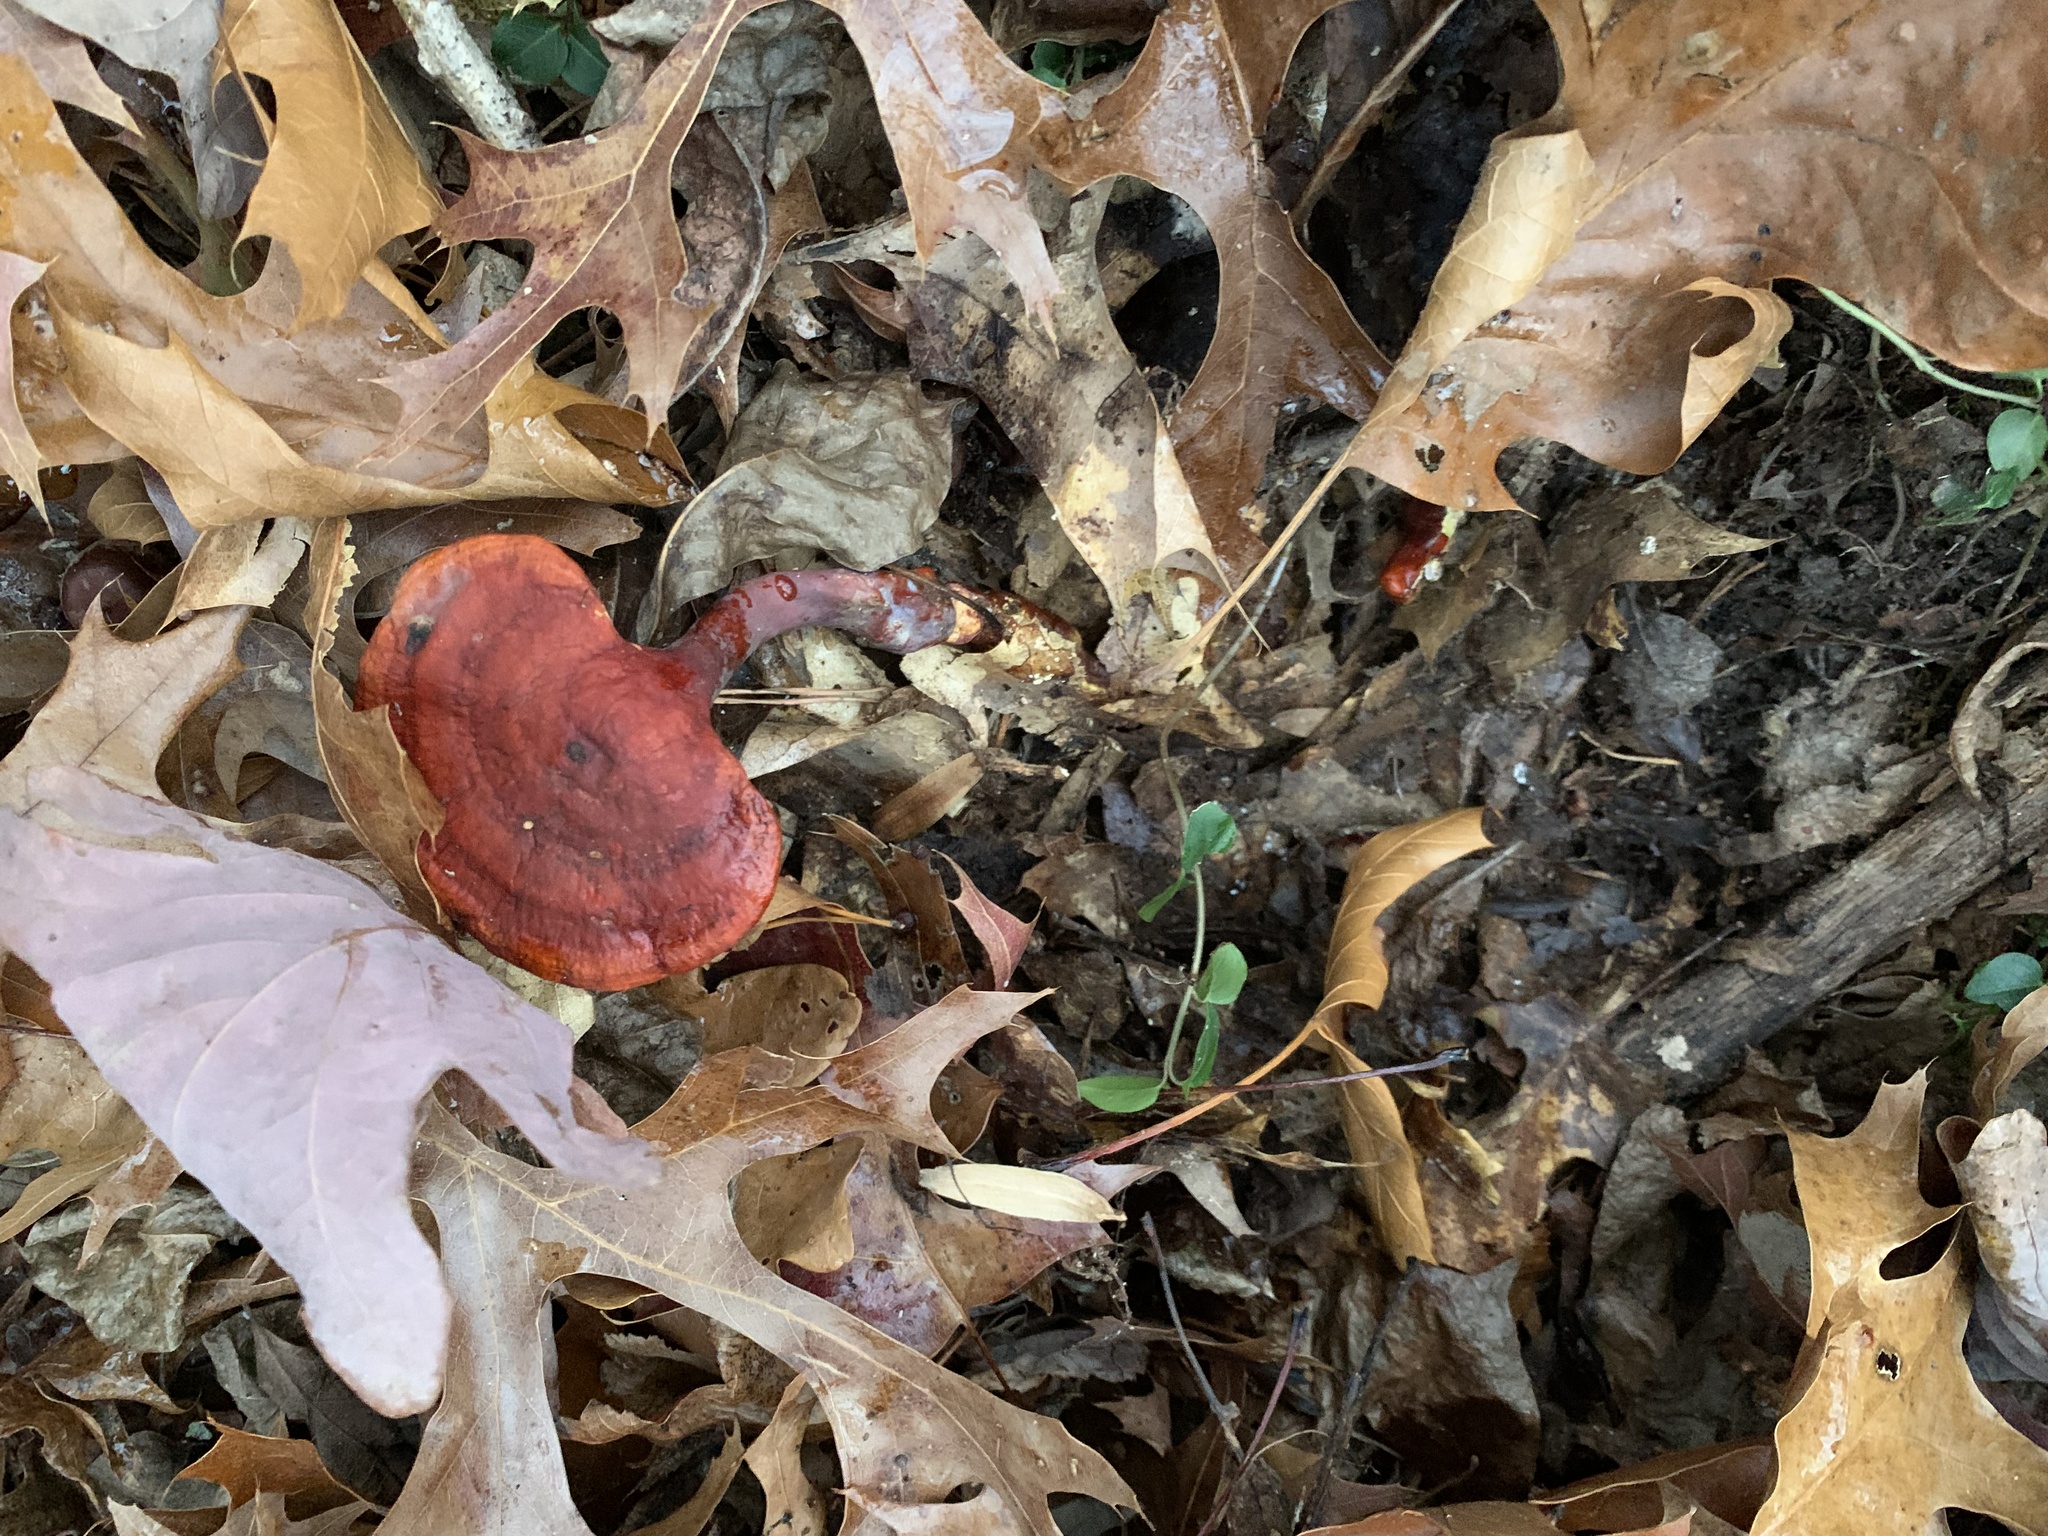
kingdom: Fungi
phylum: Basidiomycota
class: Agaricomycetes
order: Polyporales
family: Polyporaceae
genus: Ganoderma
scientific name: Ganoderma curtisii
